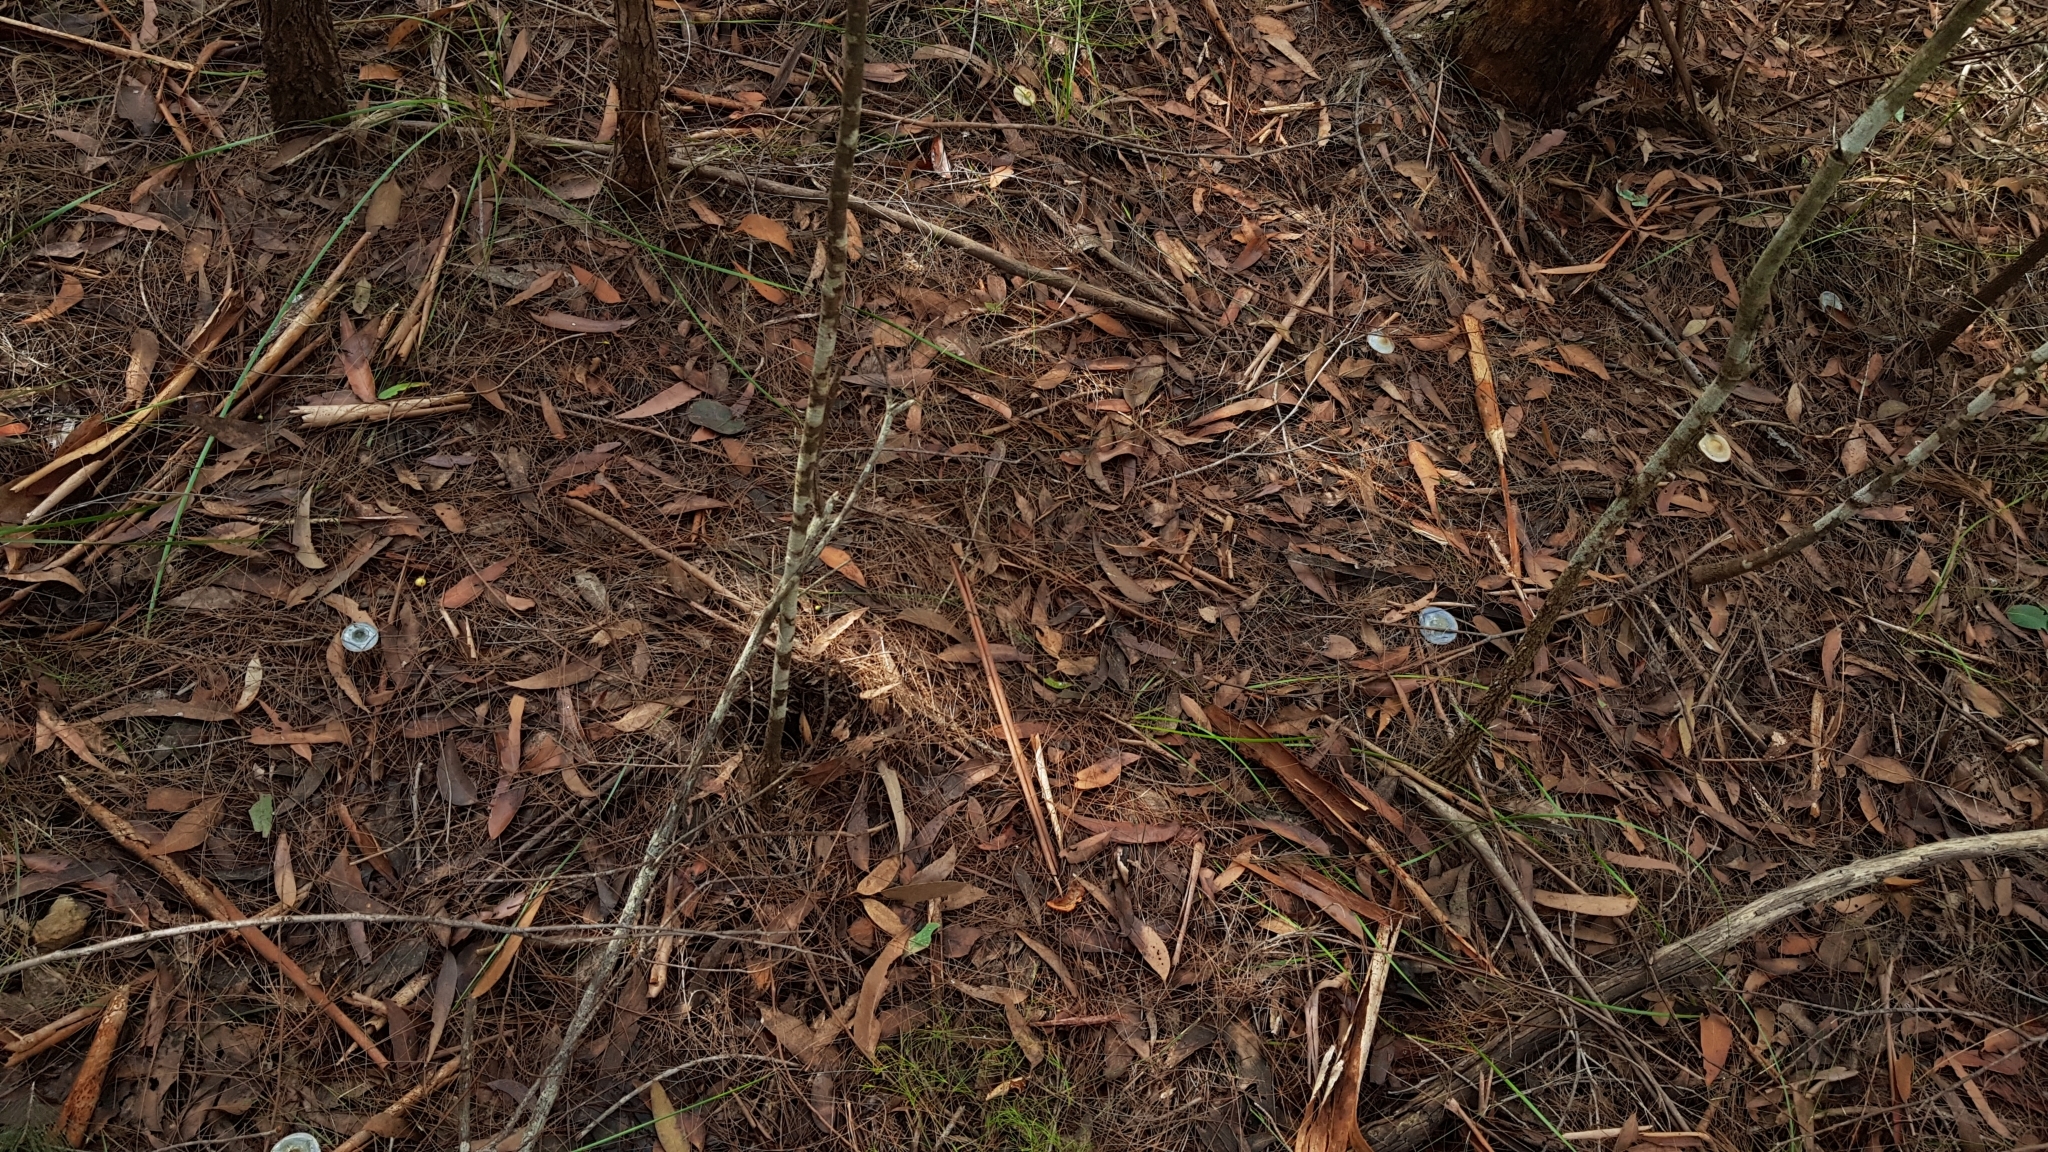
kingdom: Fungi
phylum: Basidiomycota
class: Agaricomycetes
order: Agaricales
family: Cortinariaceae
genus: Cortinarius
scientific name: Cortinarius rotundisporus
